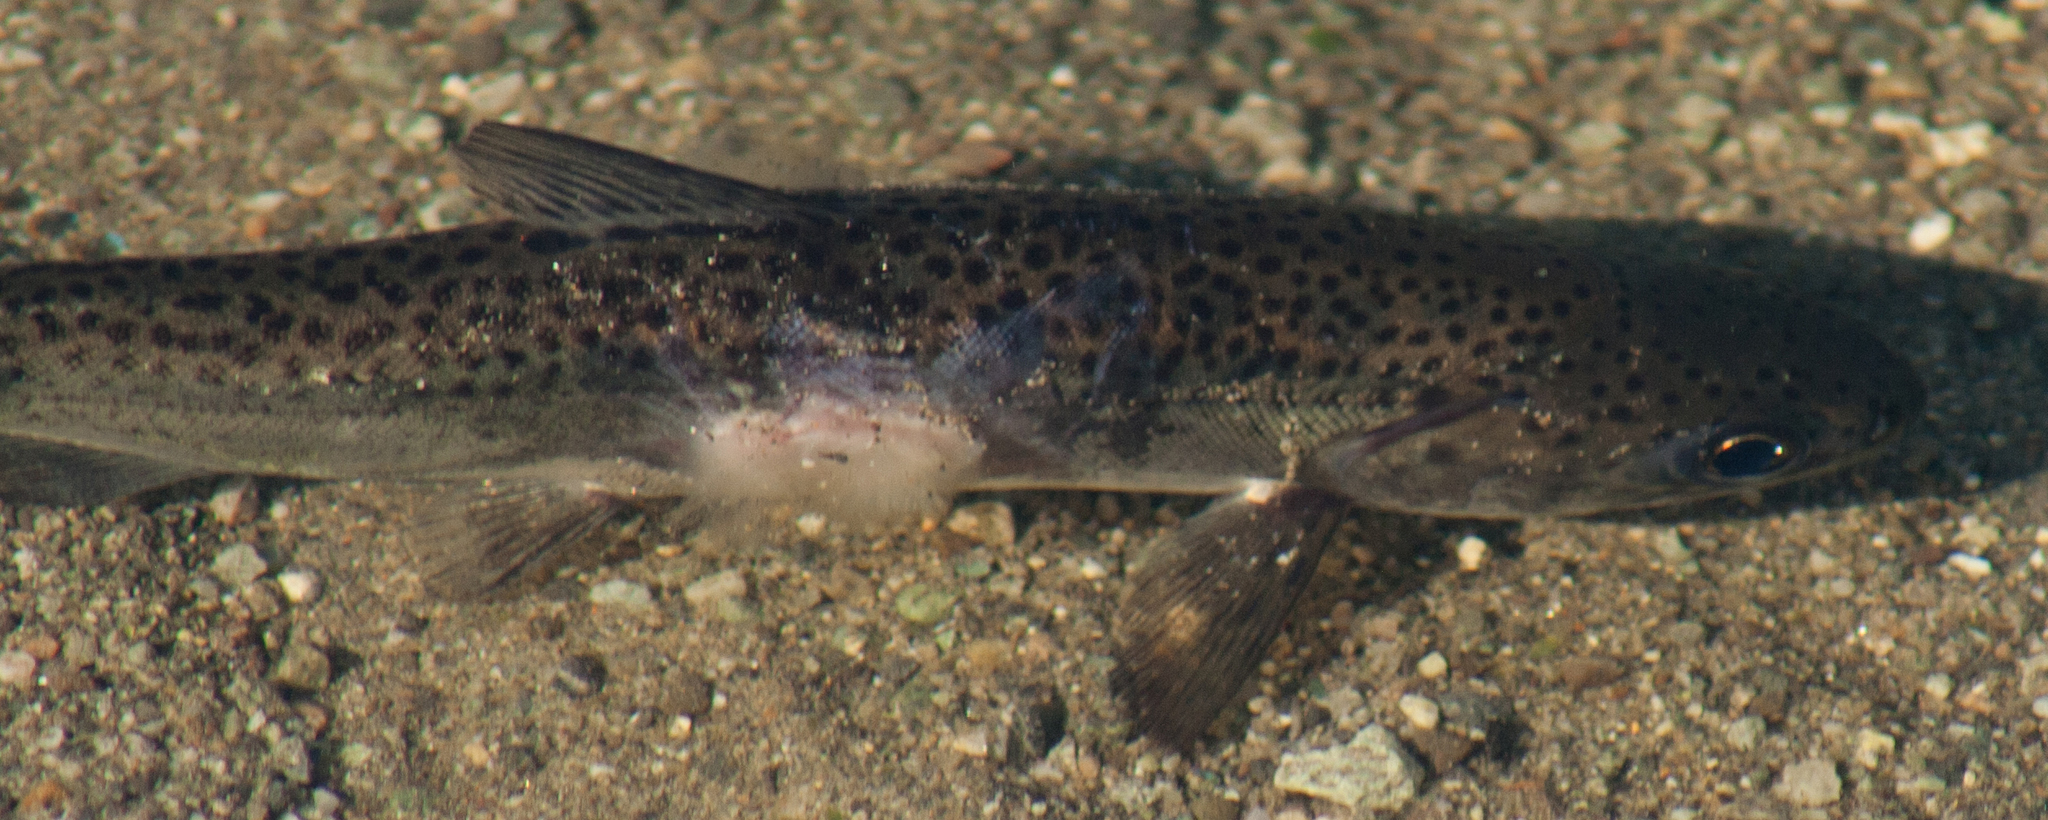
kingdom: Animalia
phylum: Chordata
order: Salmoniformes
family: Salmonidae
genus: Oncorhynchus
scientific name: Oncorhynchus mykiss
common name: Rainbow trout
